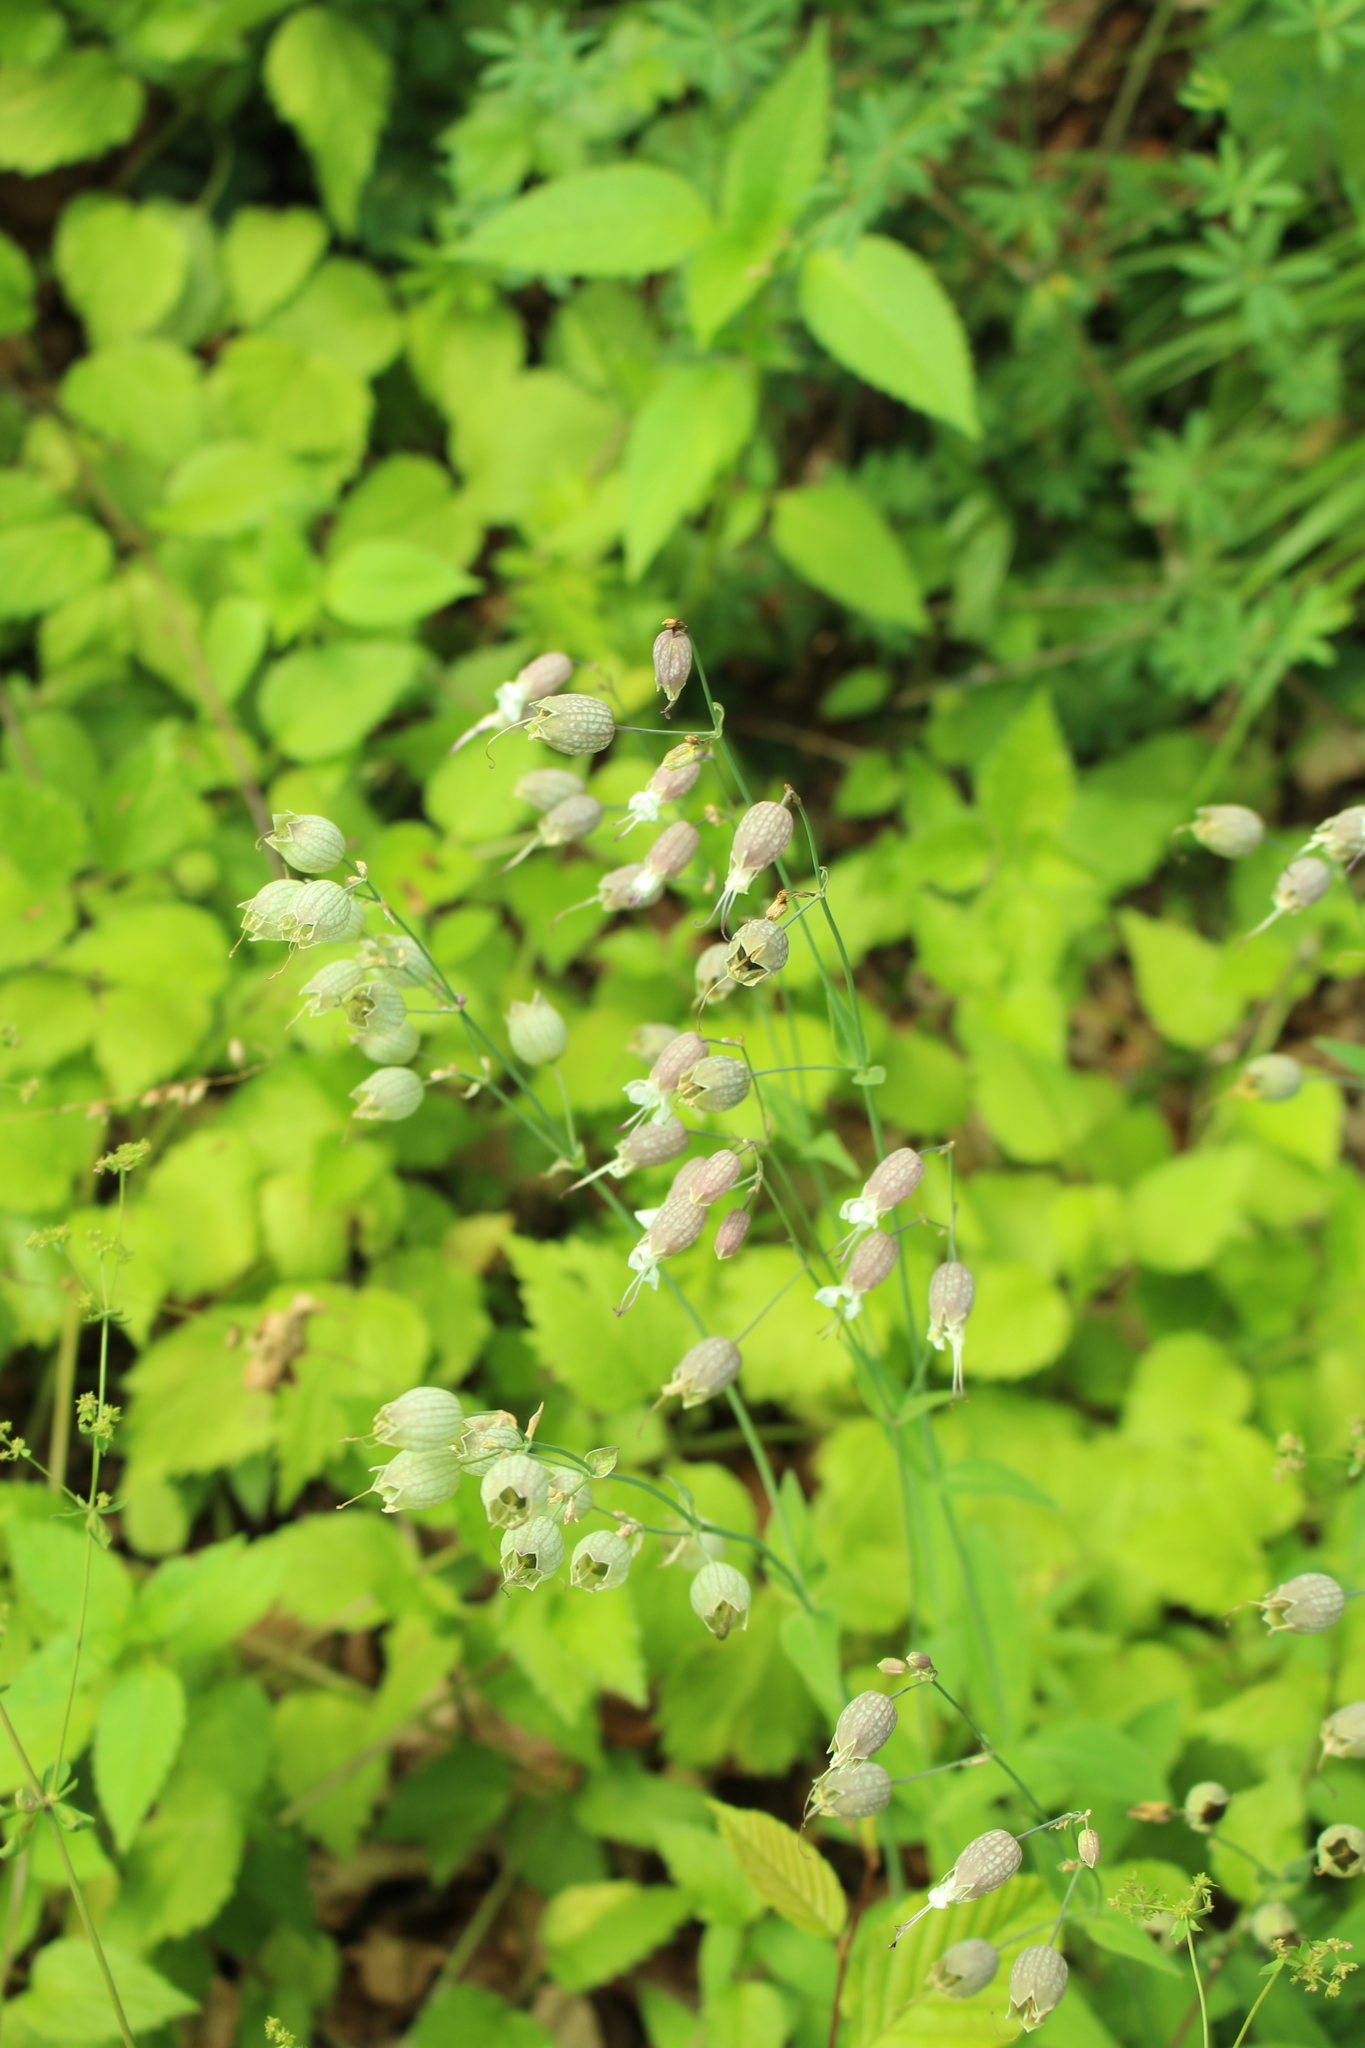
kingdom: Plantae
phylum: Tracheophyta
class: Magnoliopsida
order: Caryophyllales
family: Caryophyllaceae
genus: Silene
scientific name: Silene vulgaris
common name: Bladder campion
